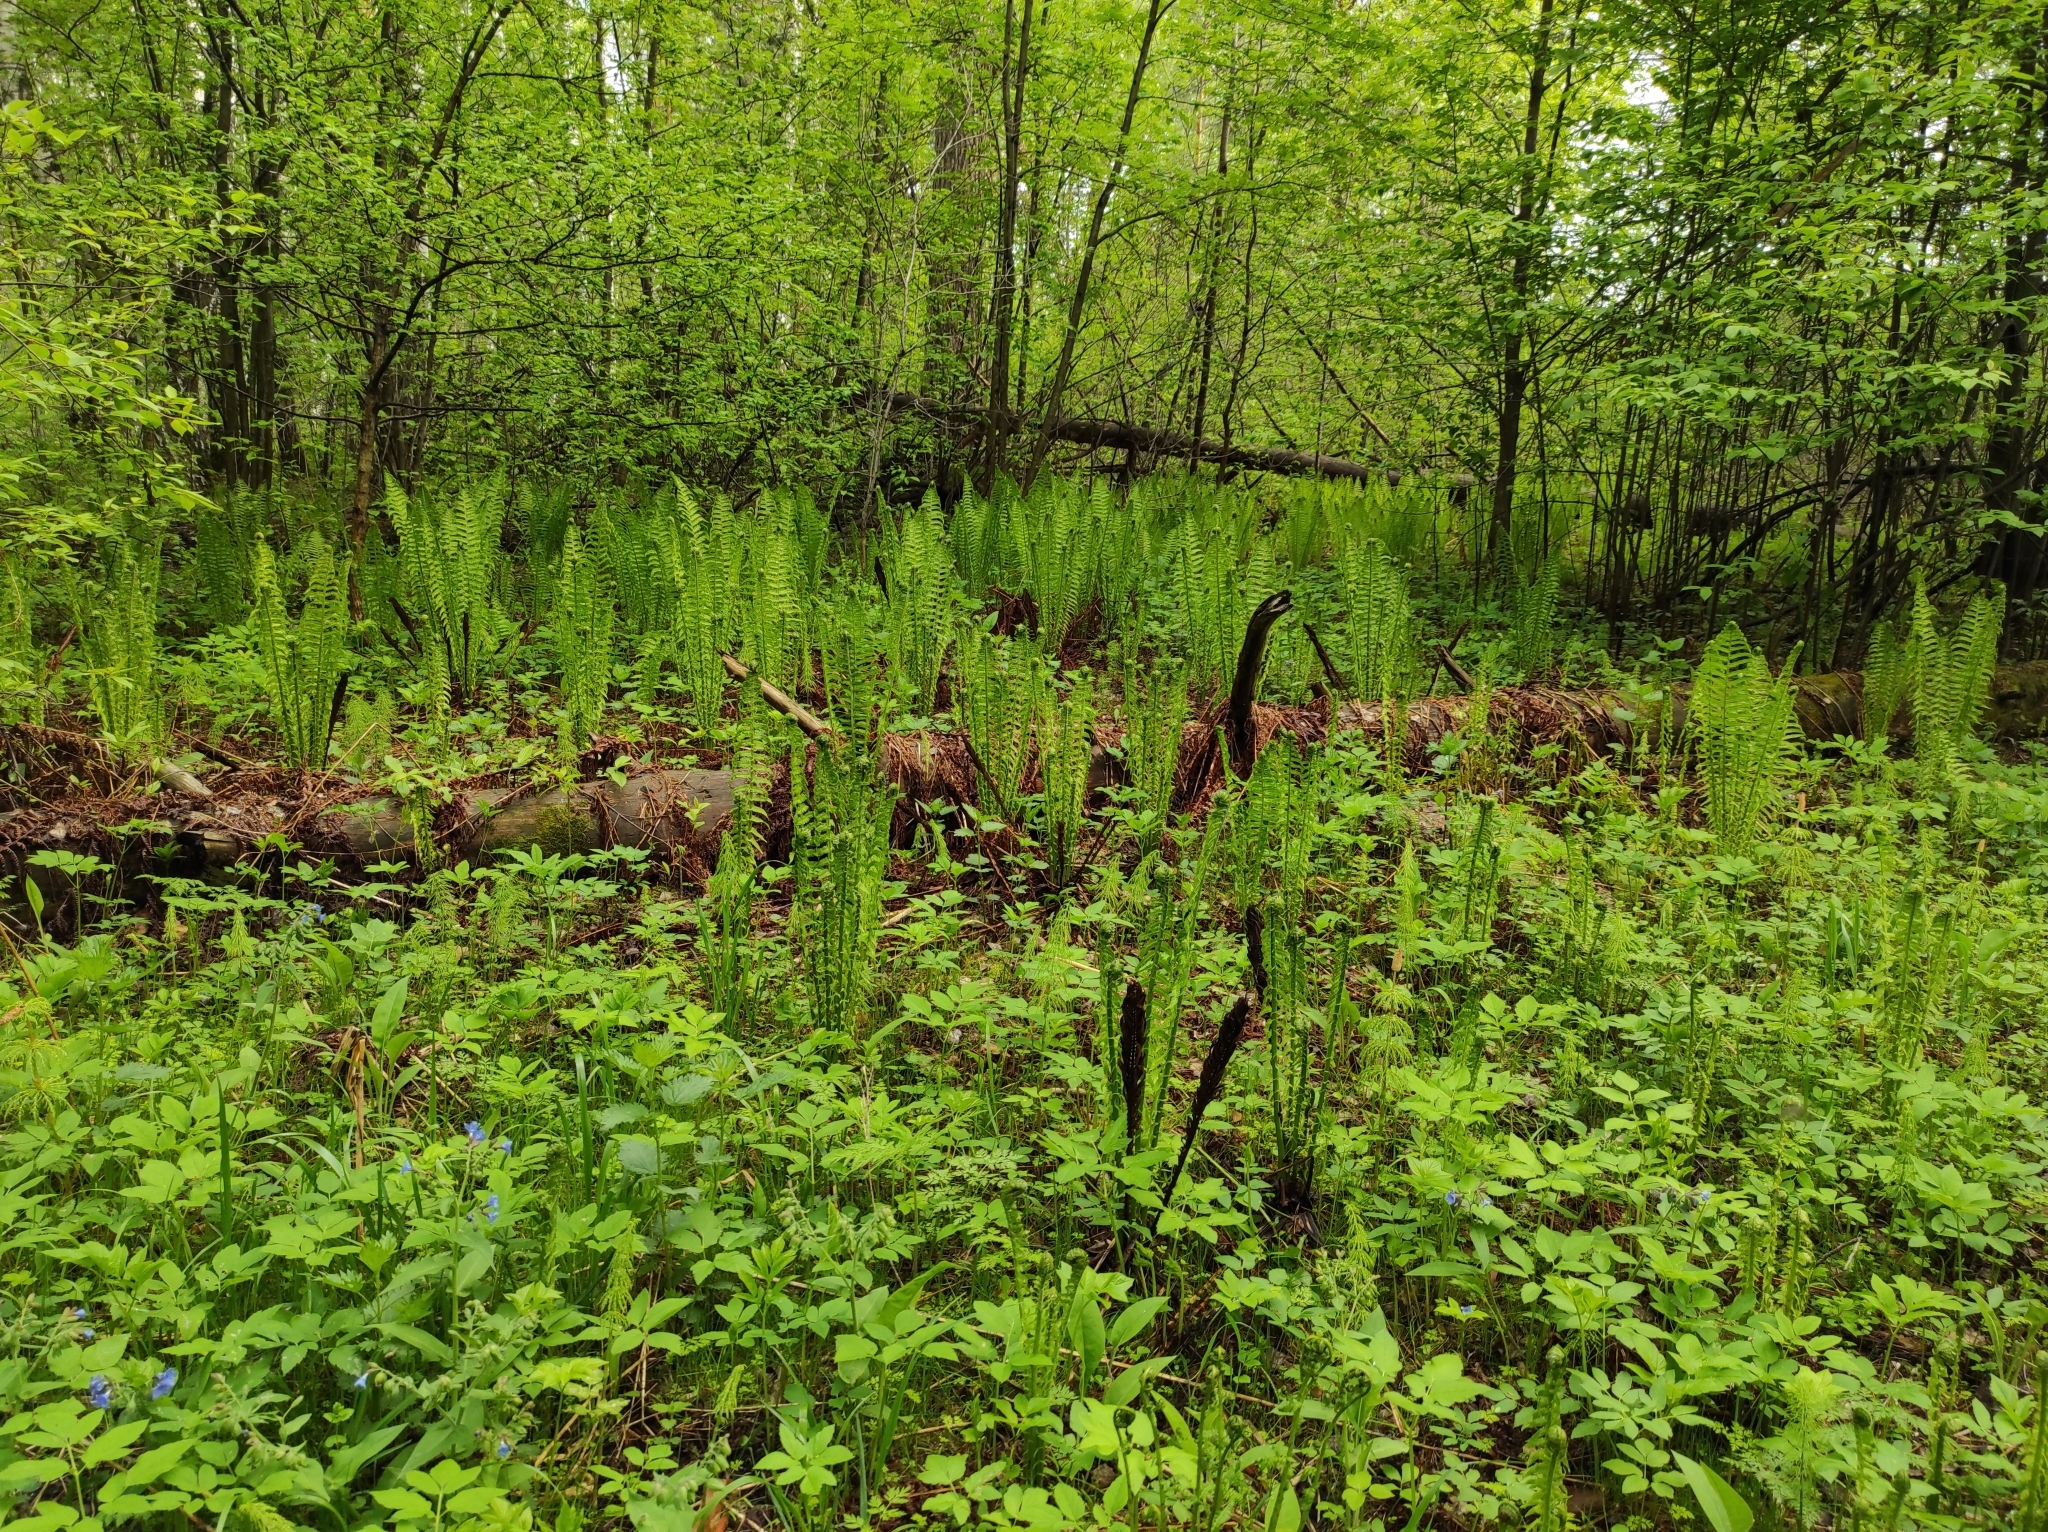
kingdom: Plantae
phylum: Tracheophyta
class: Polypodiopsida
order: Polypodiales
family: Onocleaceae
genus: Matteuccia
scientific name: Matteuccia struthiopteris
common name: Ostrich fern
